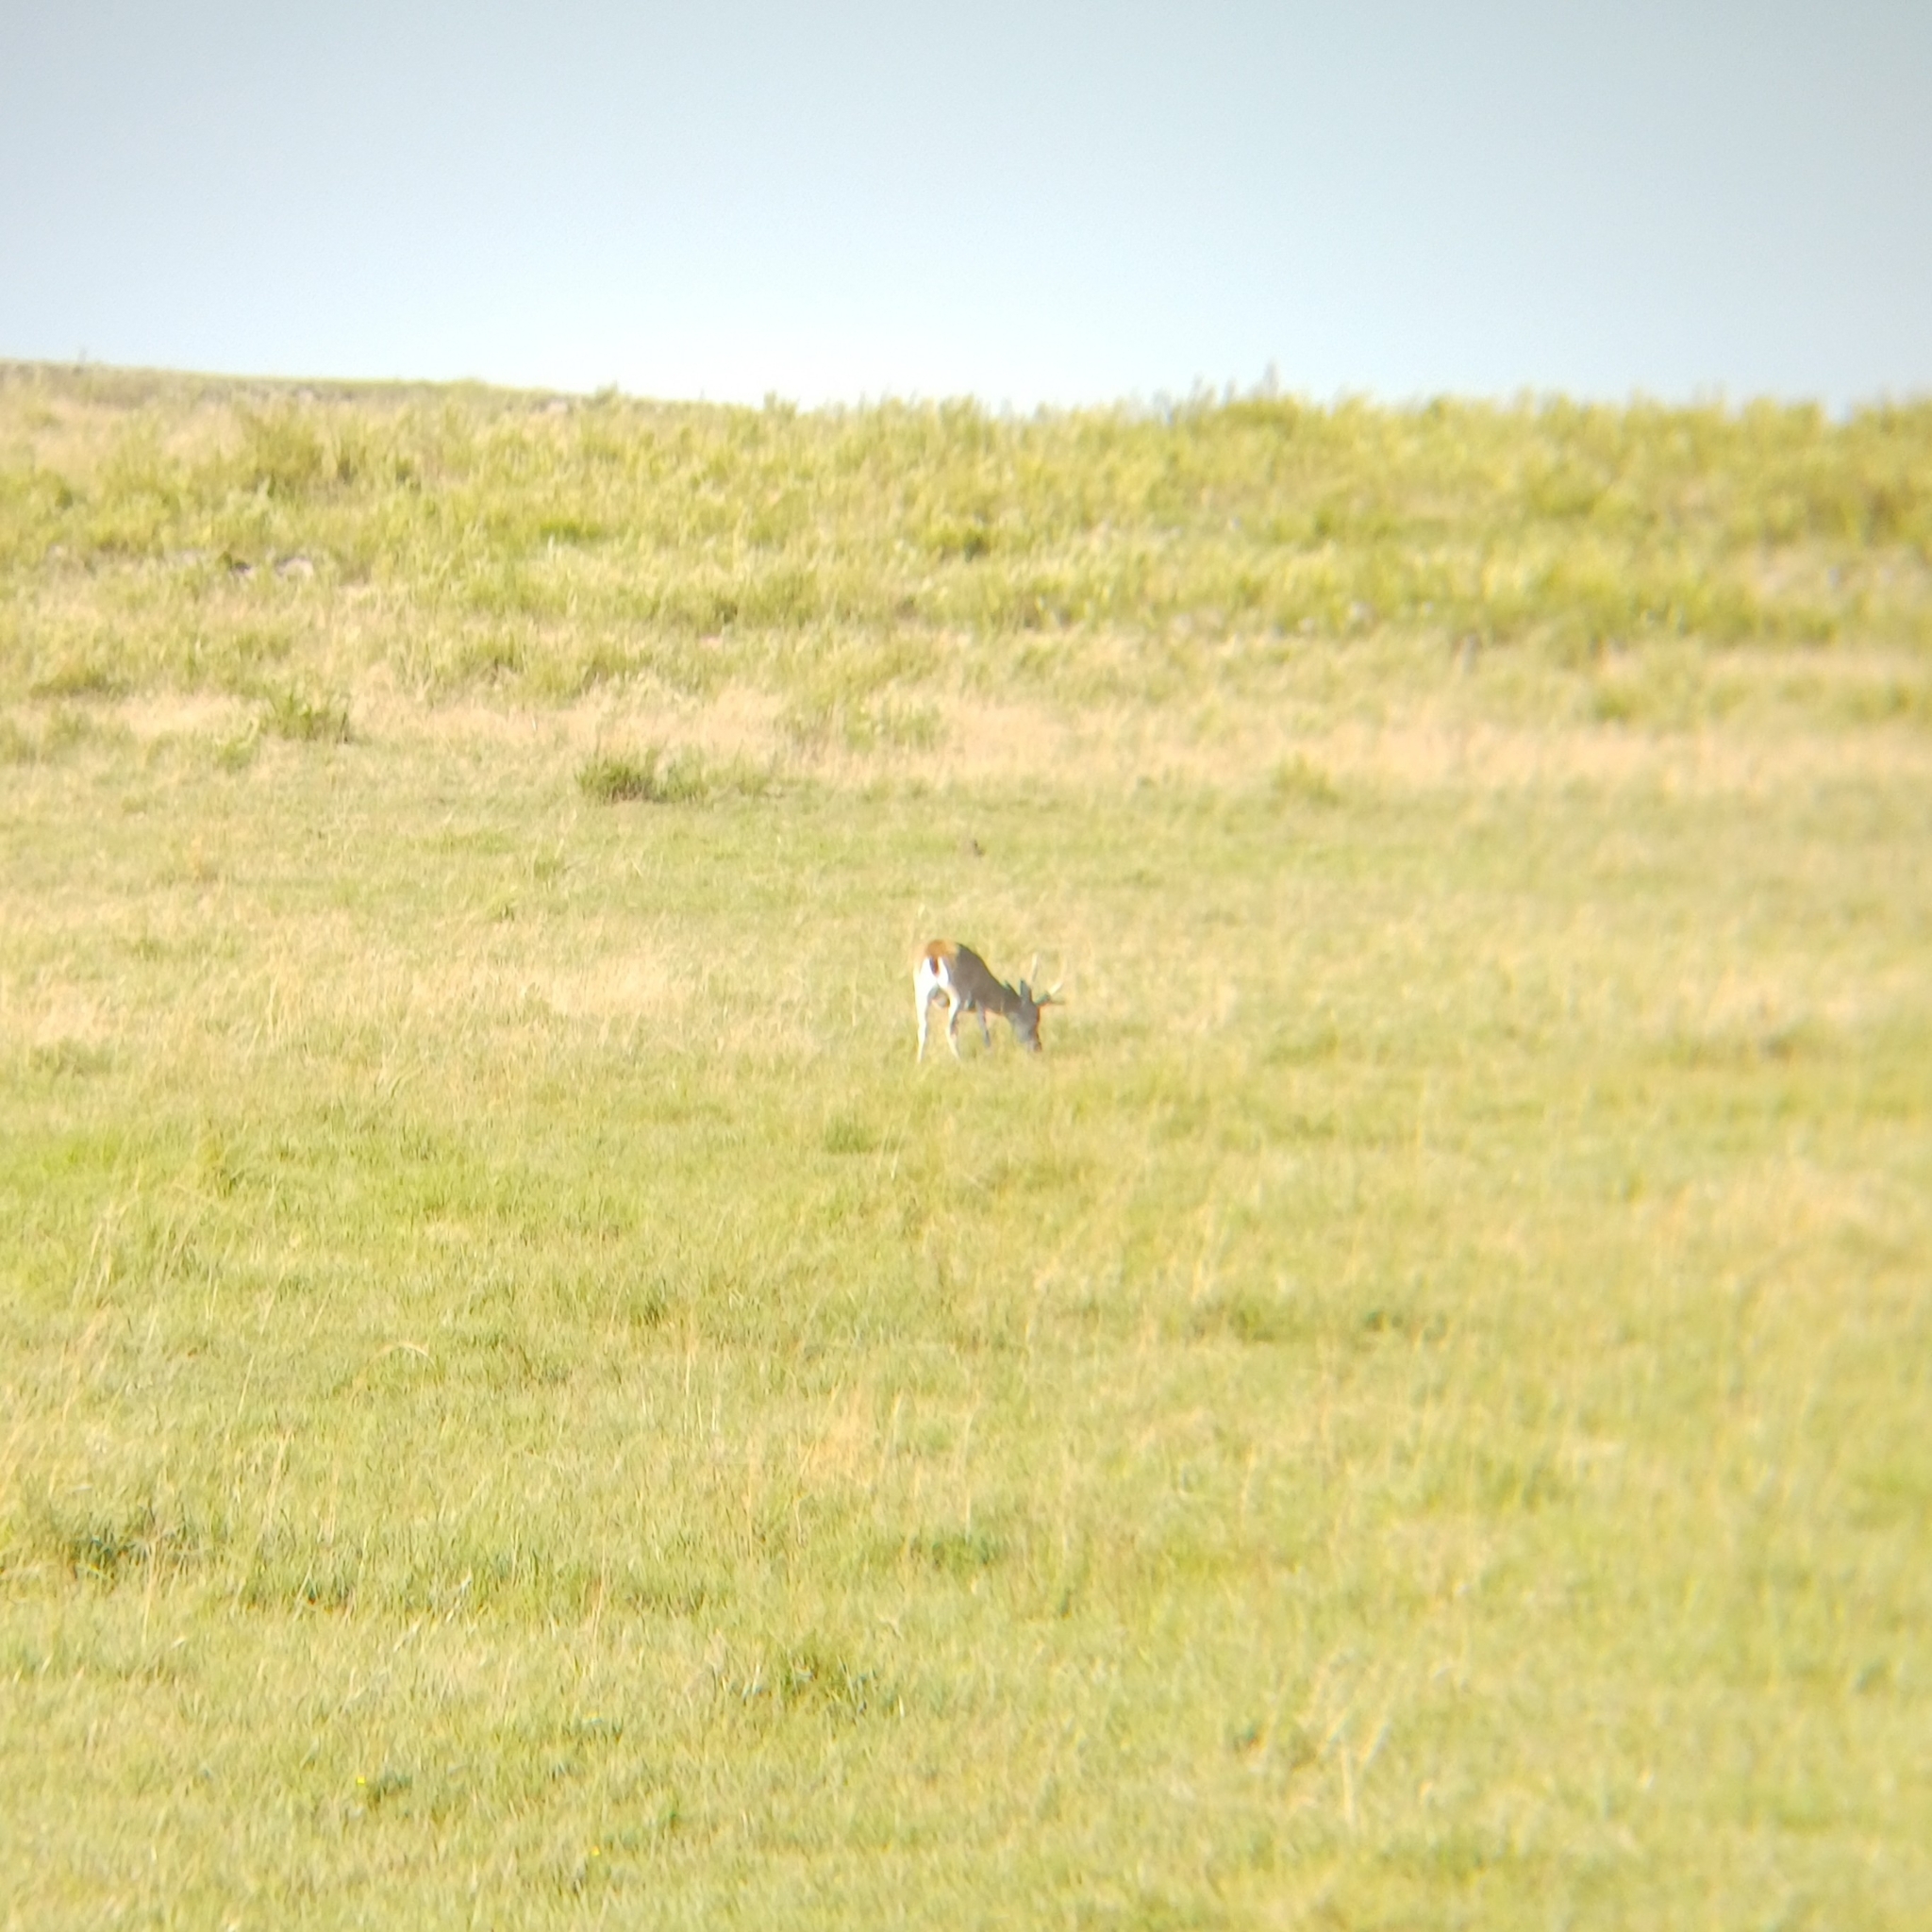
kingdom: Animalia
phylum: Chordata
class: Mammalia
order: Artiodactyla
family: Cervidae
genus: Ozotoceros
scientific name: Ozotoceros bezoarticus
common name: Pampas deer
